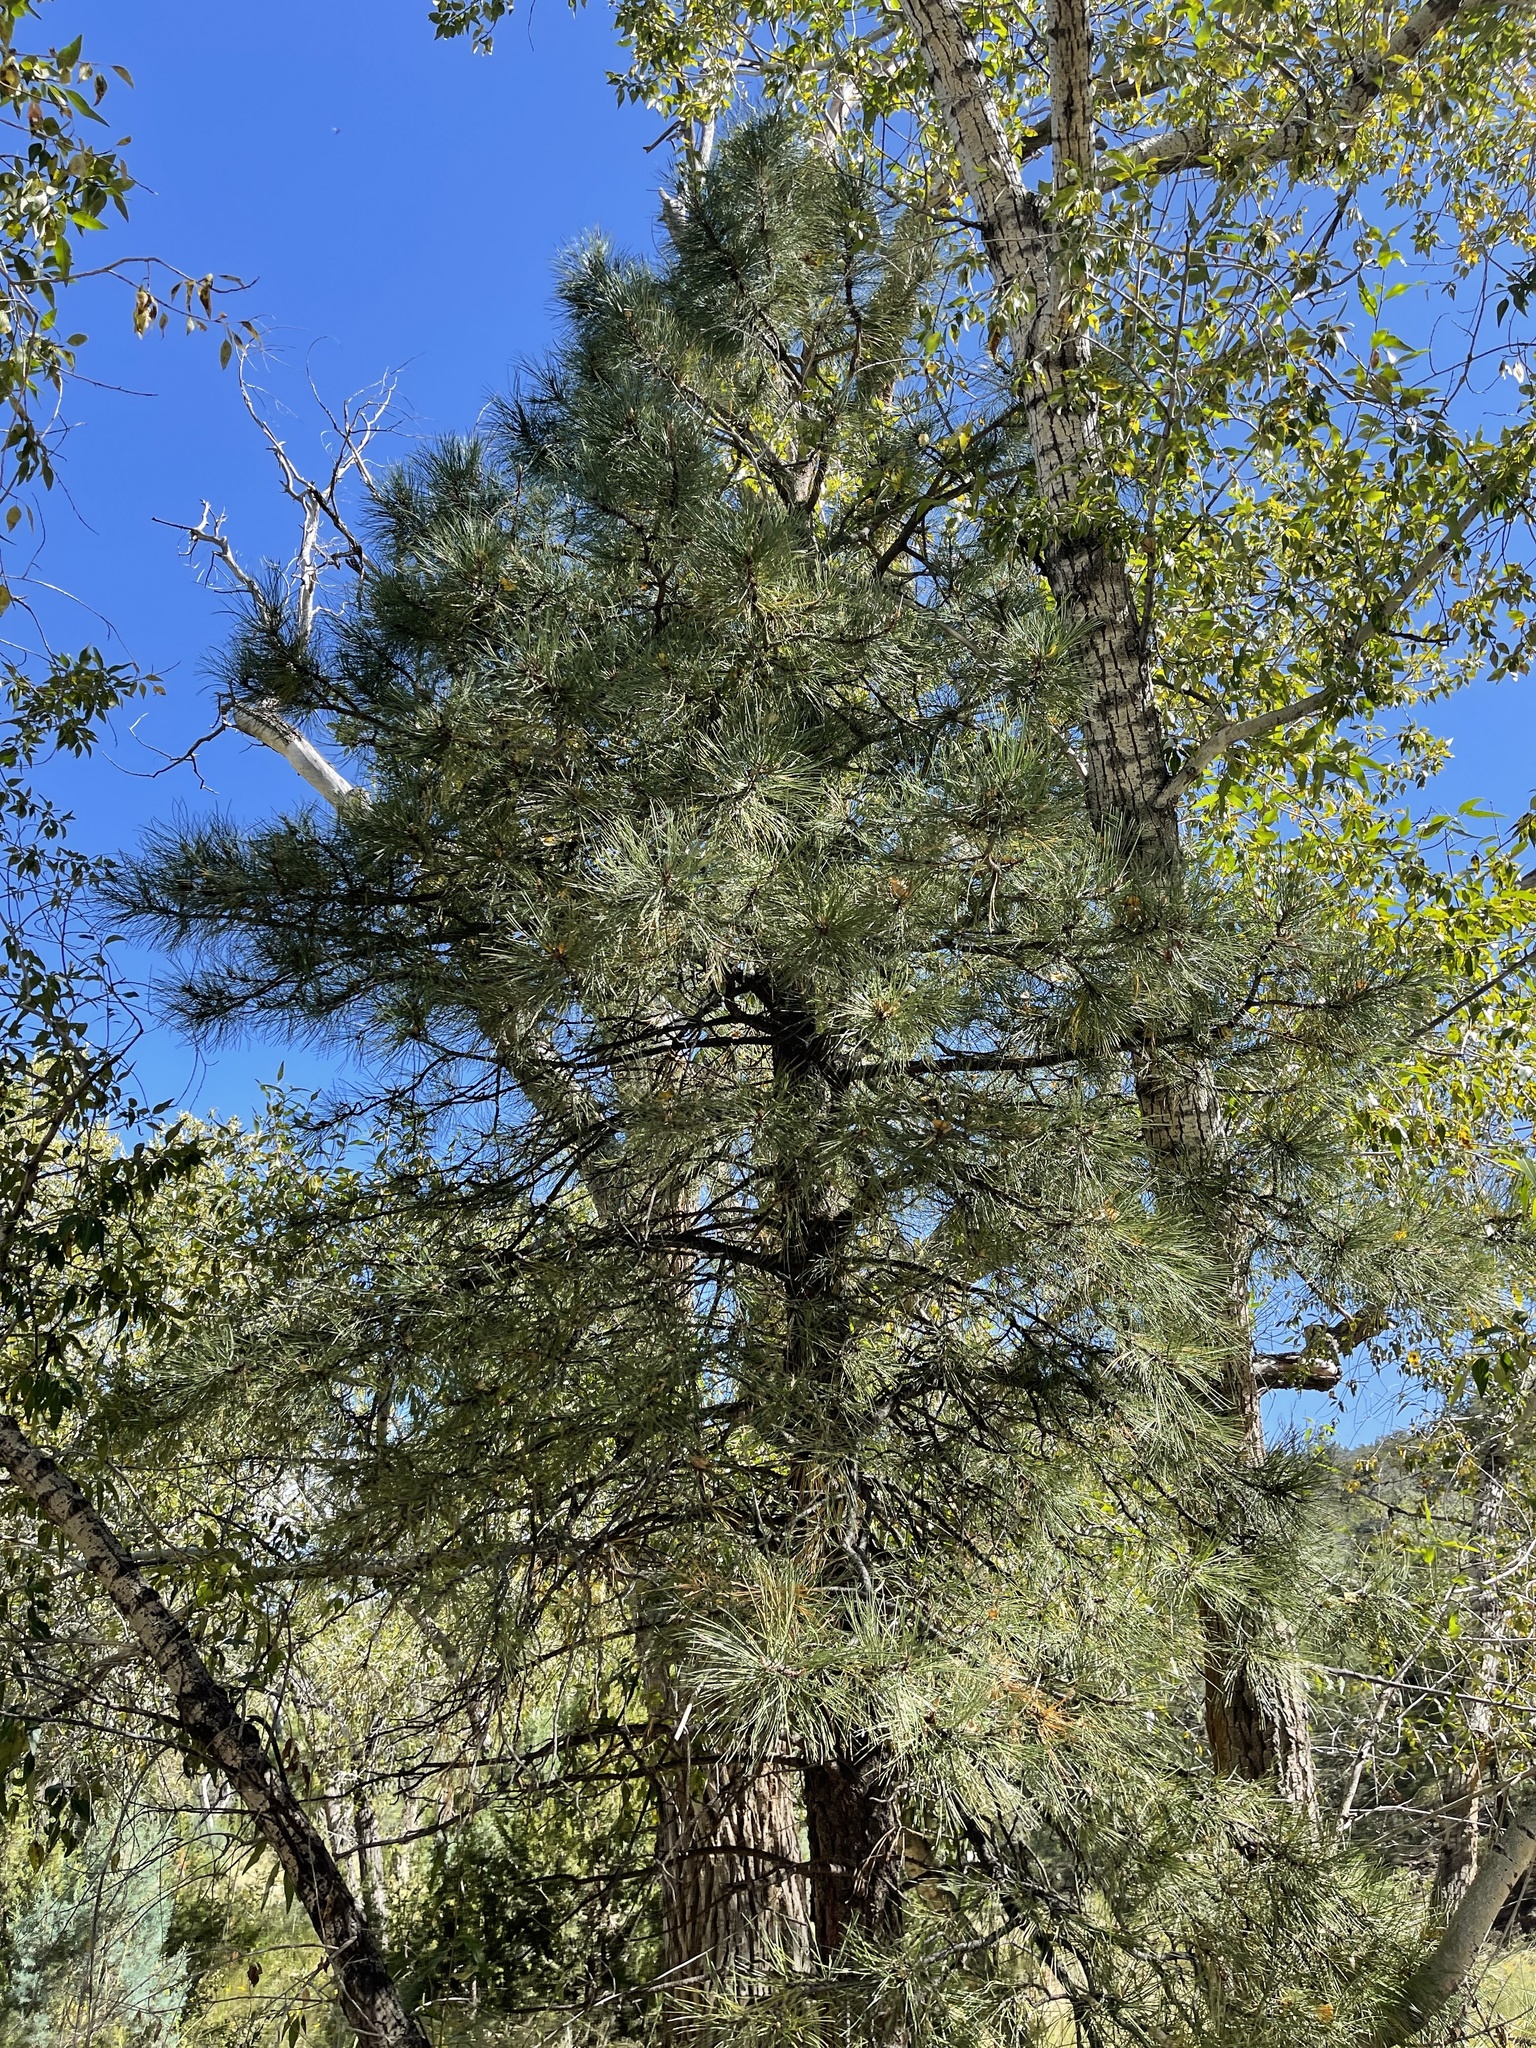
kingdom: Plantae
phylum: Tracheophyta
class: Pinopsida
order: Pinales
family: Pinaceae
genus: Pinus
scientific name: Pinus ponderosa
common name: Western yellow-pine
